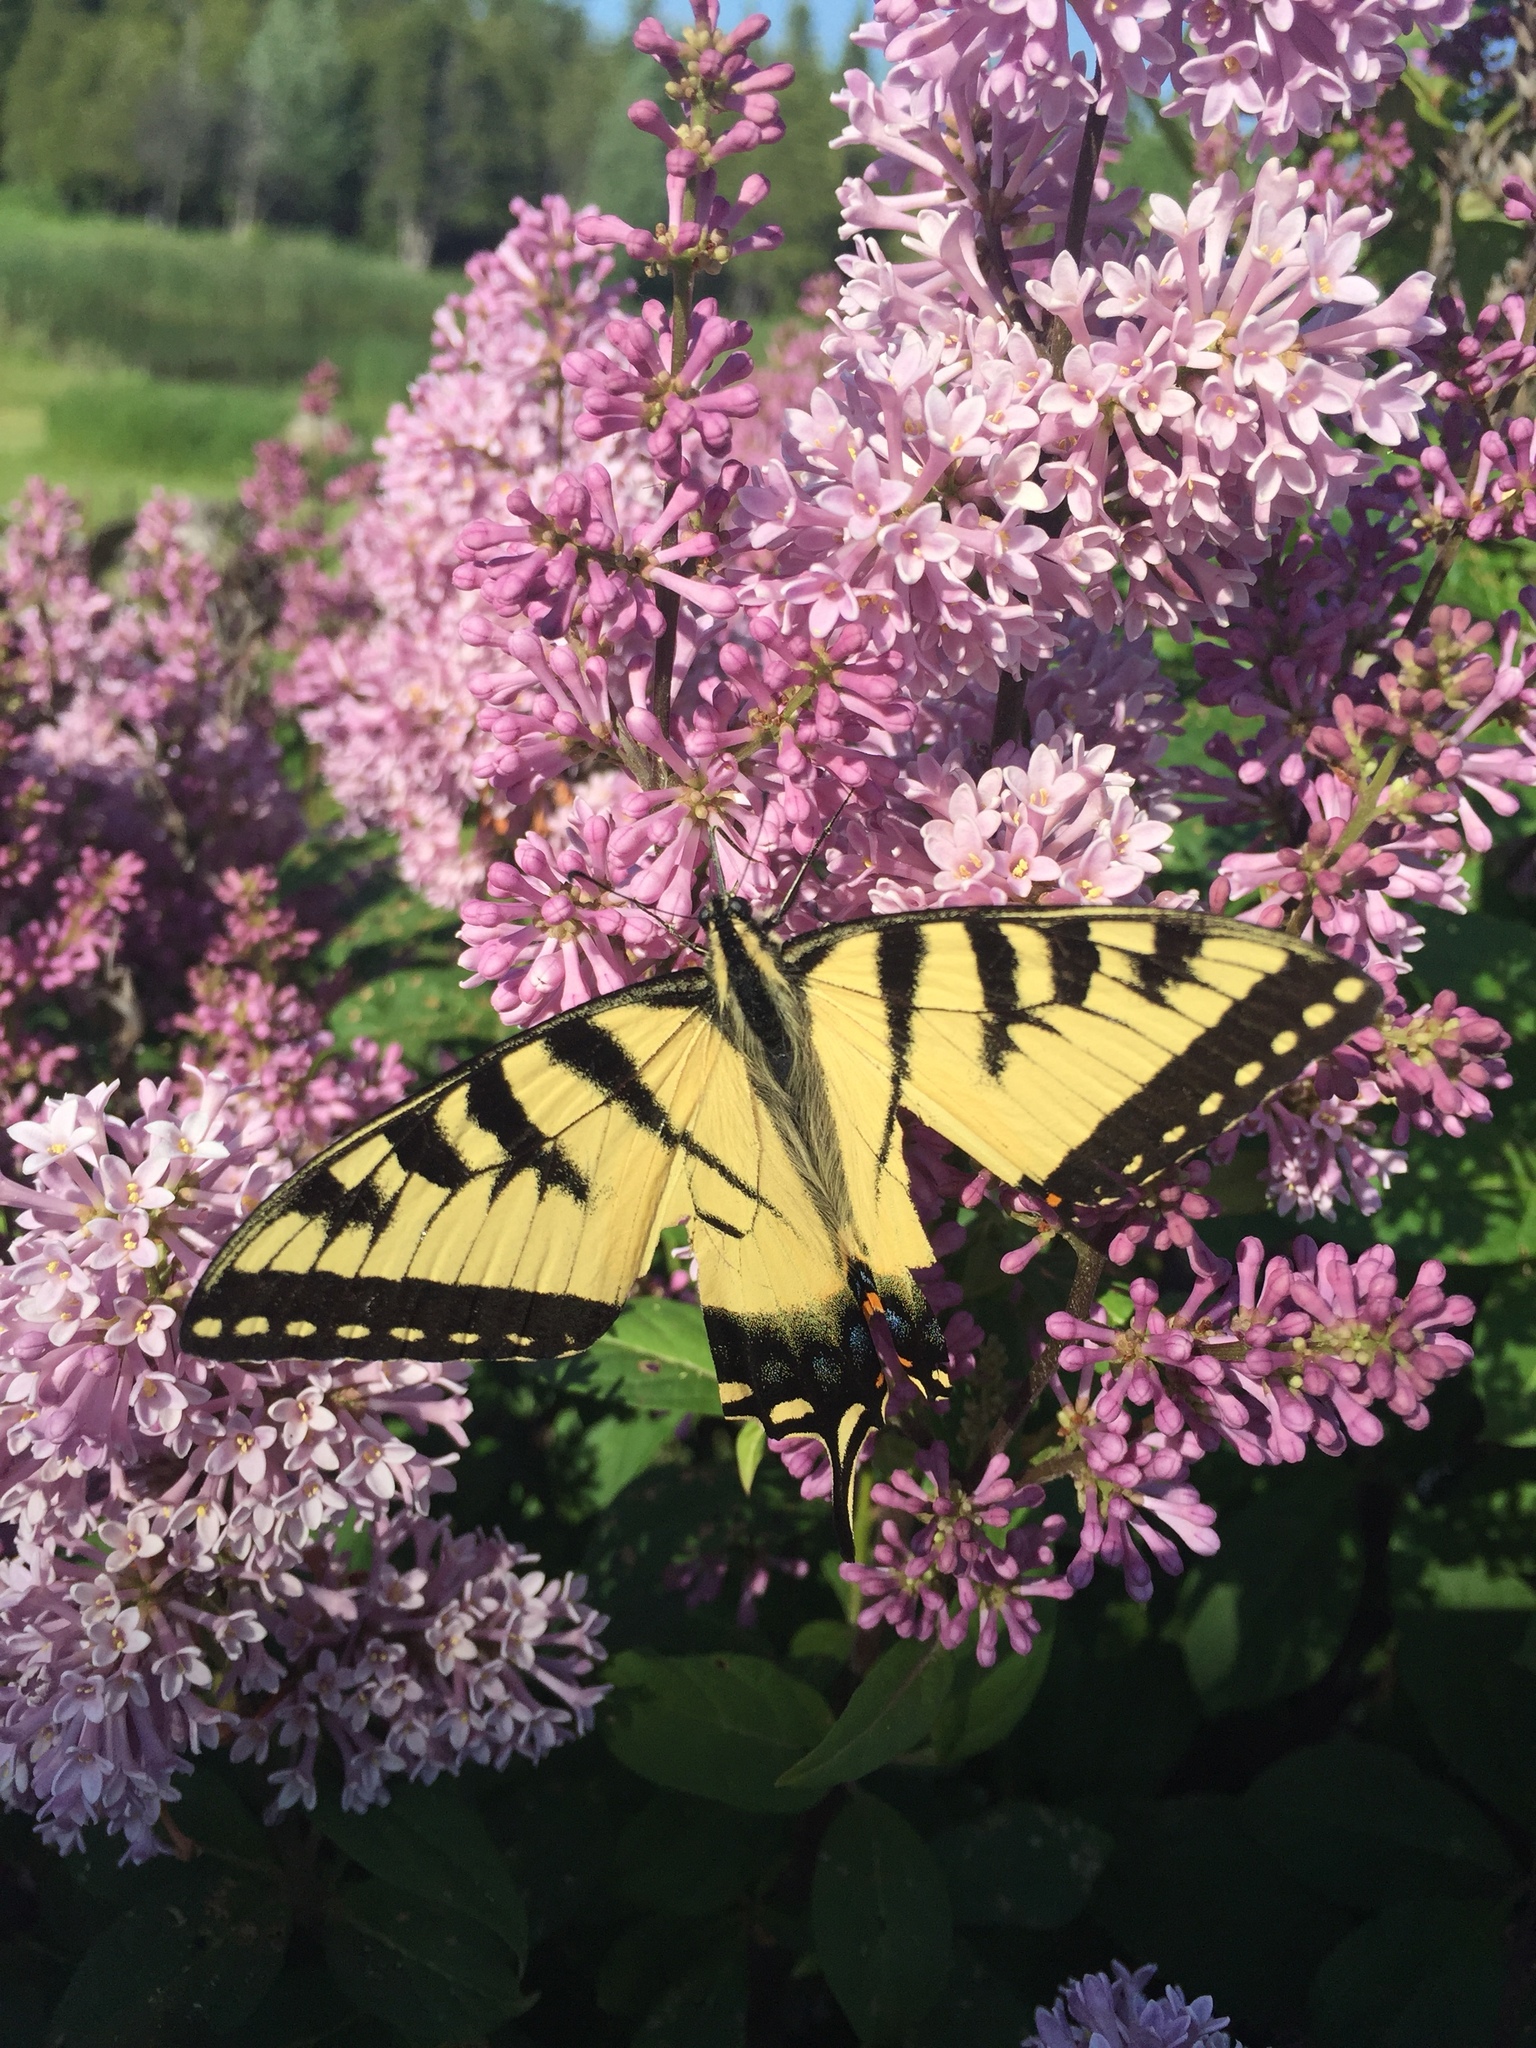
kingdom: Animalia
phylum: Arthropoda
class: Insecta
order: Lepidoptera
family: Papilionidae
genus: Papilio
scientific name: Papilio glaucus
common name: Tiger swallowtail
